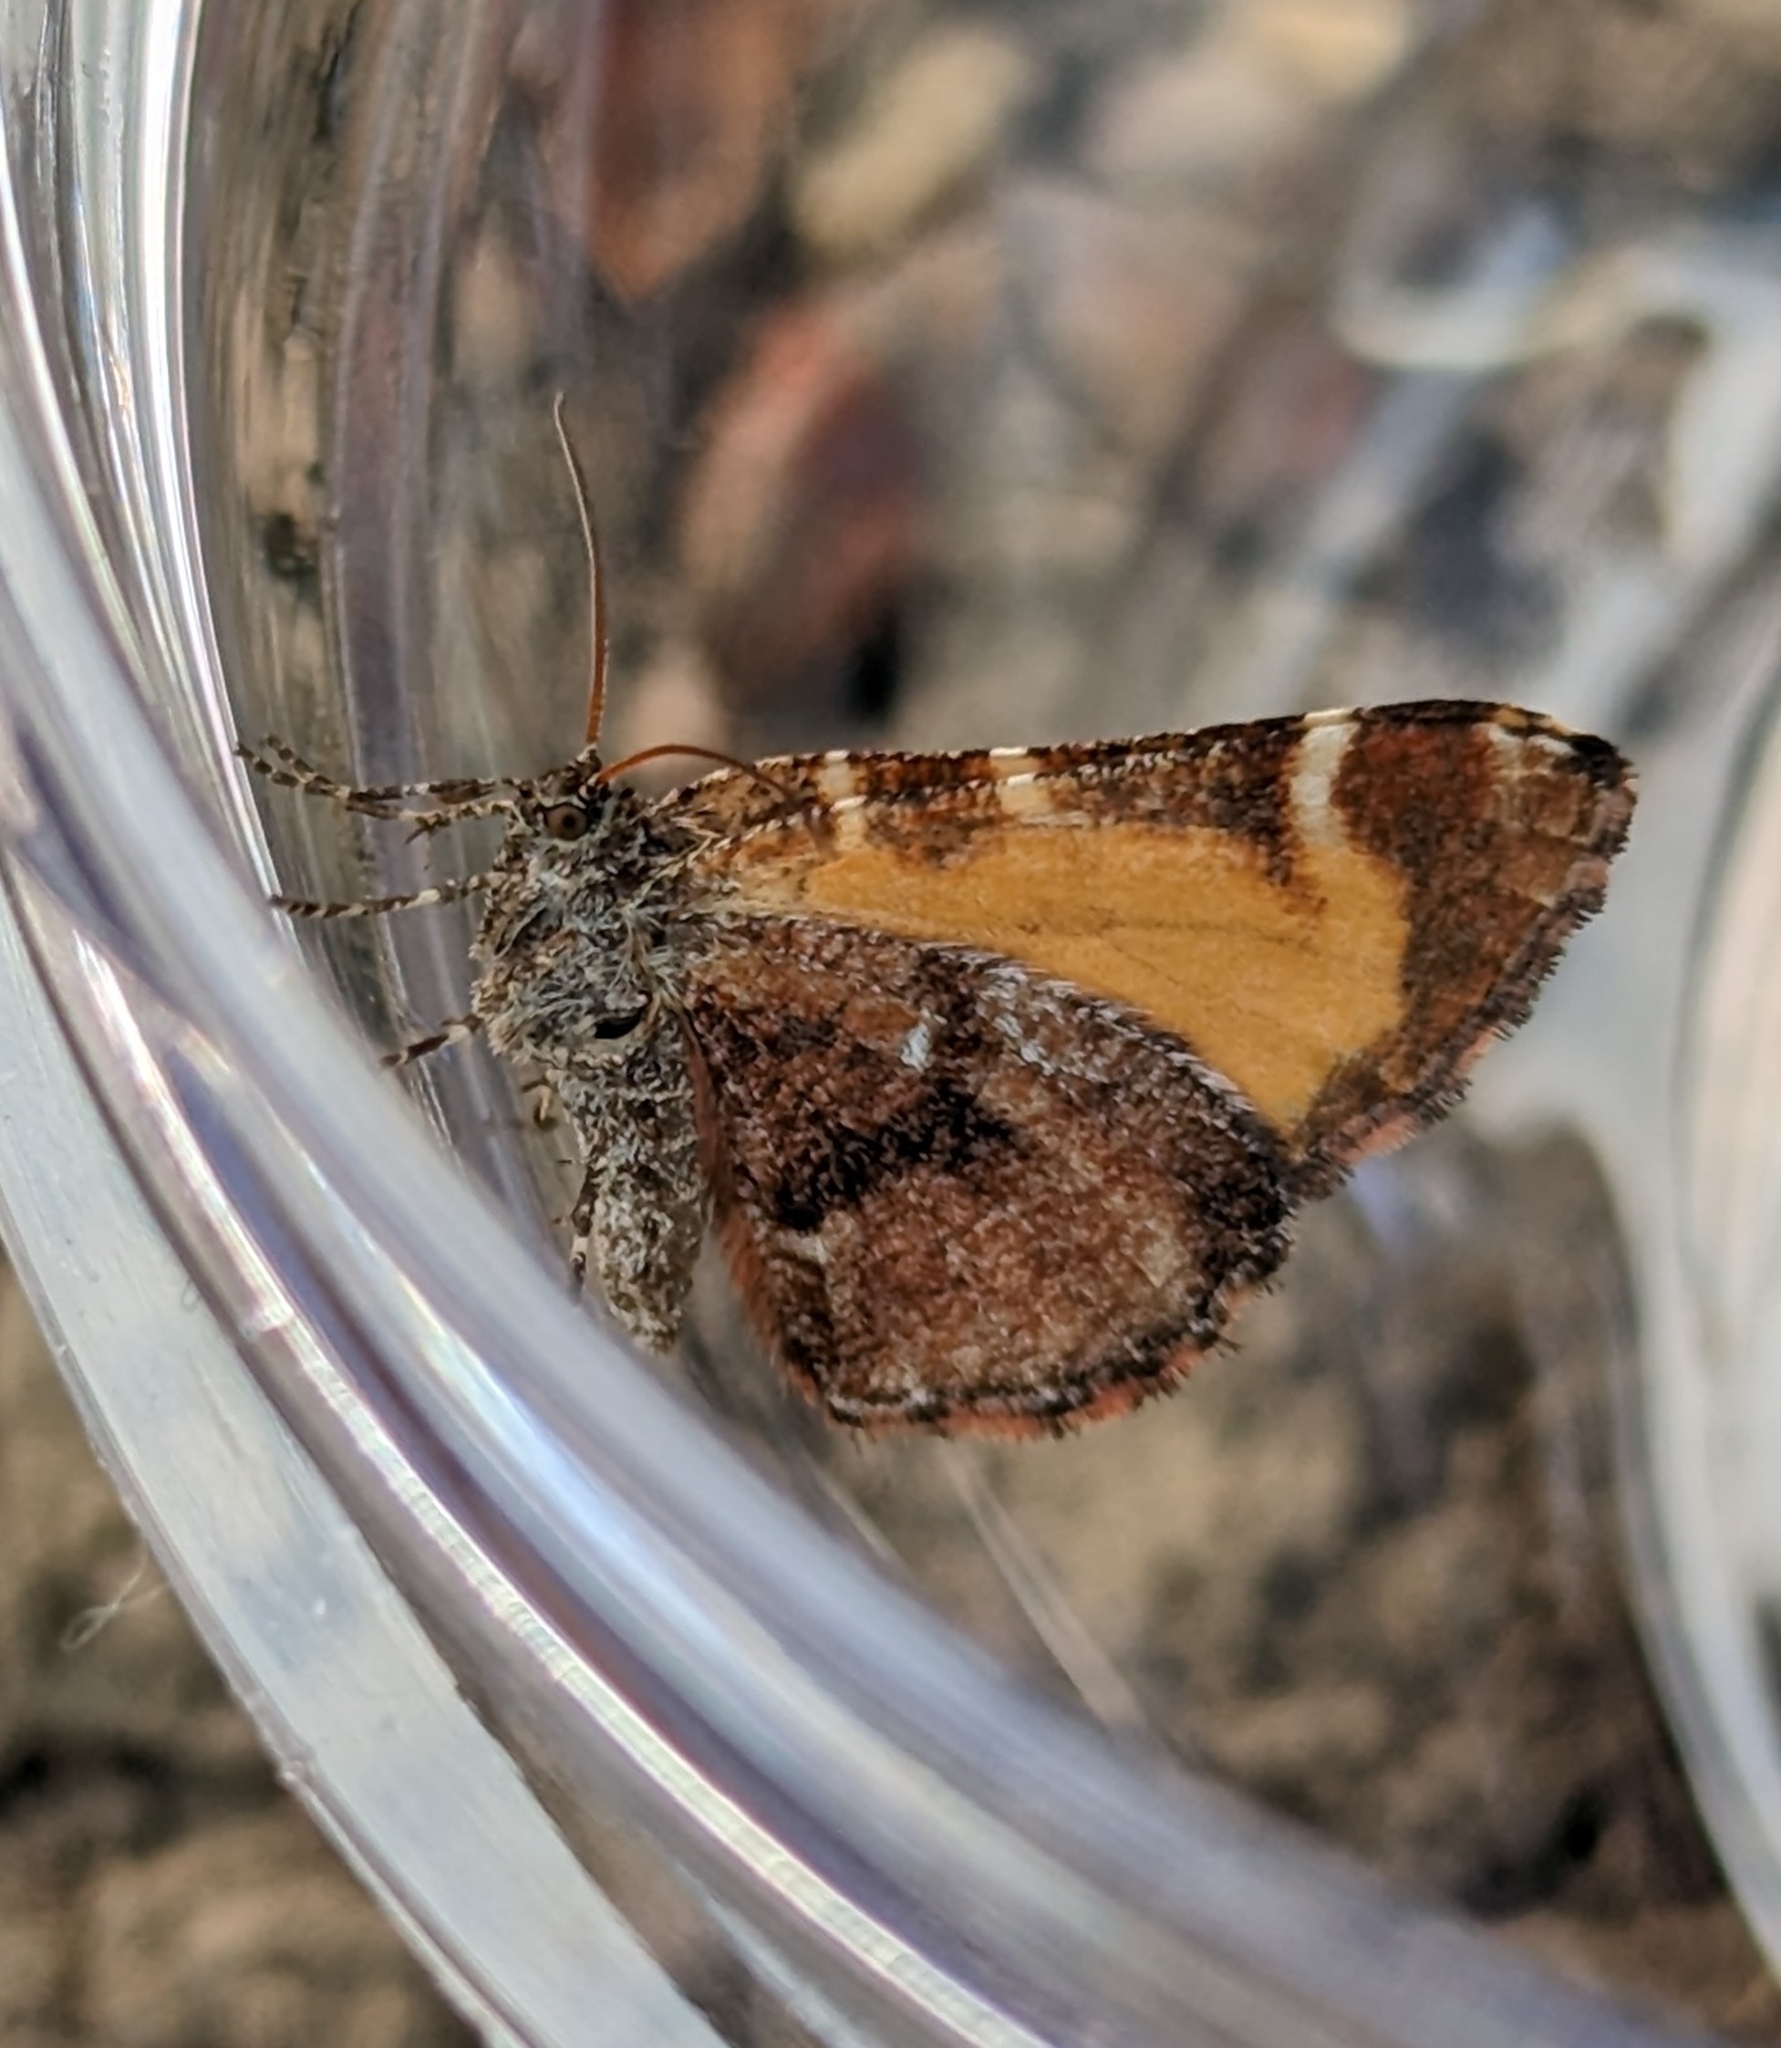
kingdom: Animalia
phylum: Arthropoda
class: Insecta
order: Lepidoptera
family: Geometridae
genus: Stamnodes
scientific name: Stamnodes topazata
